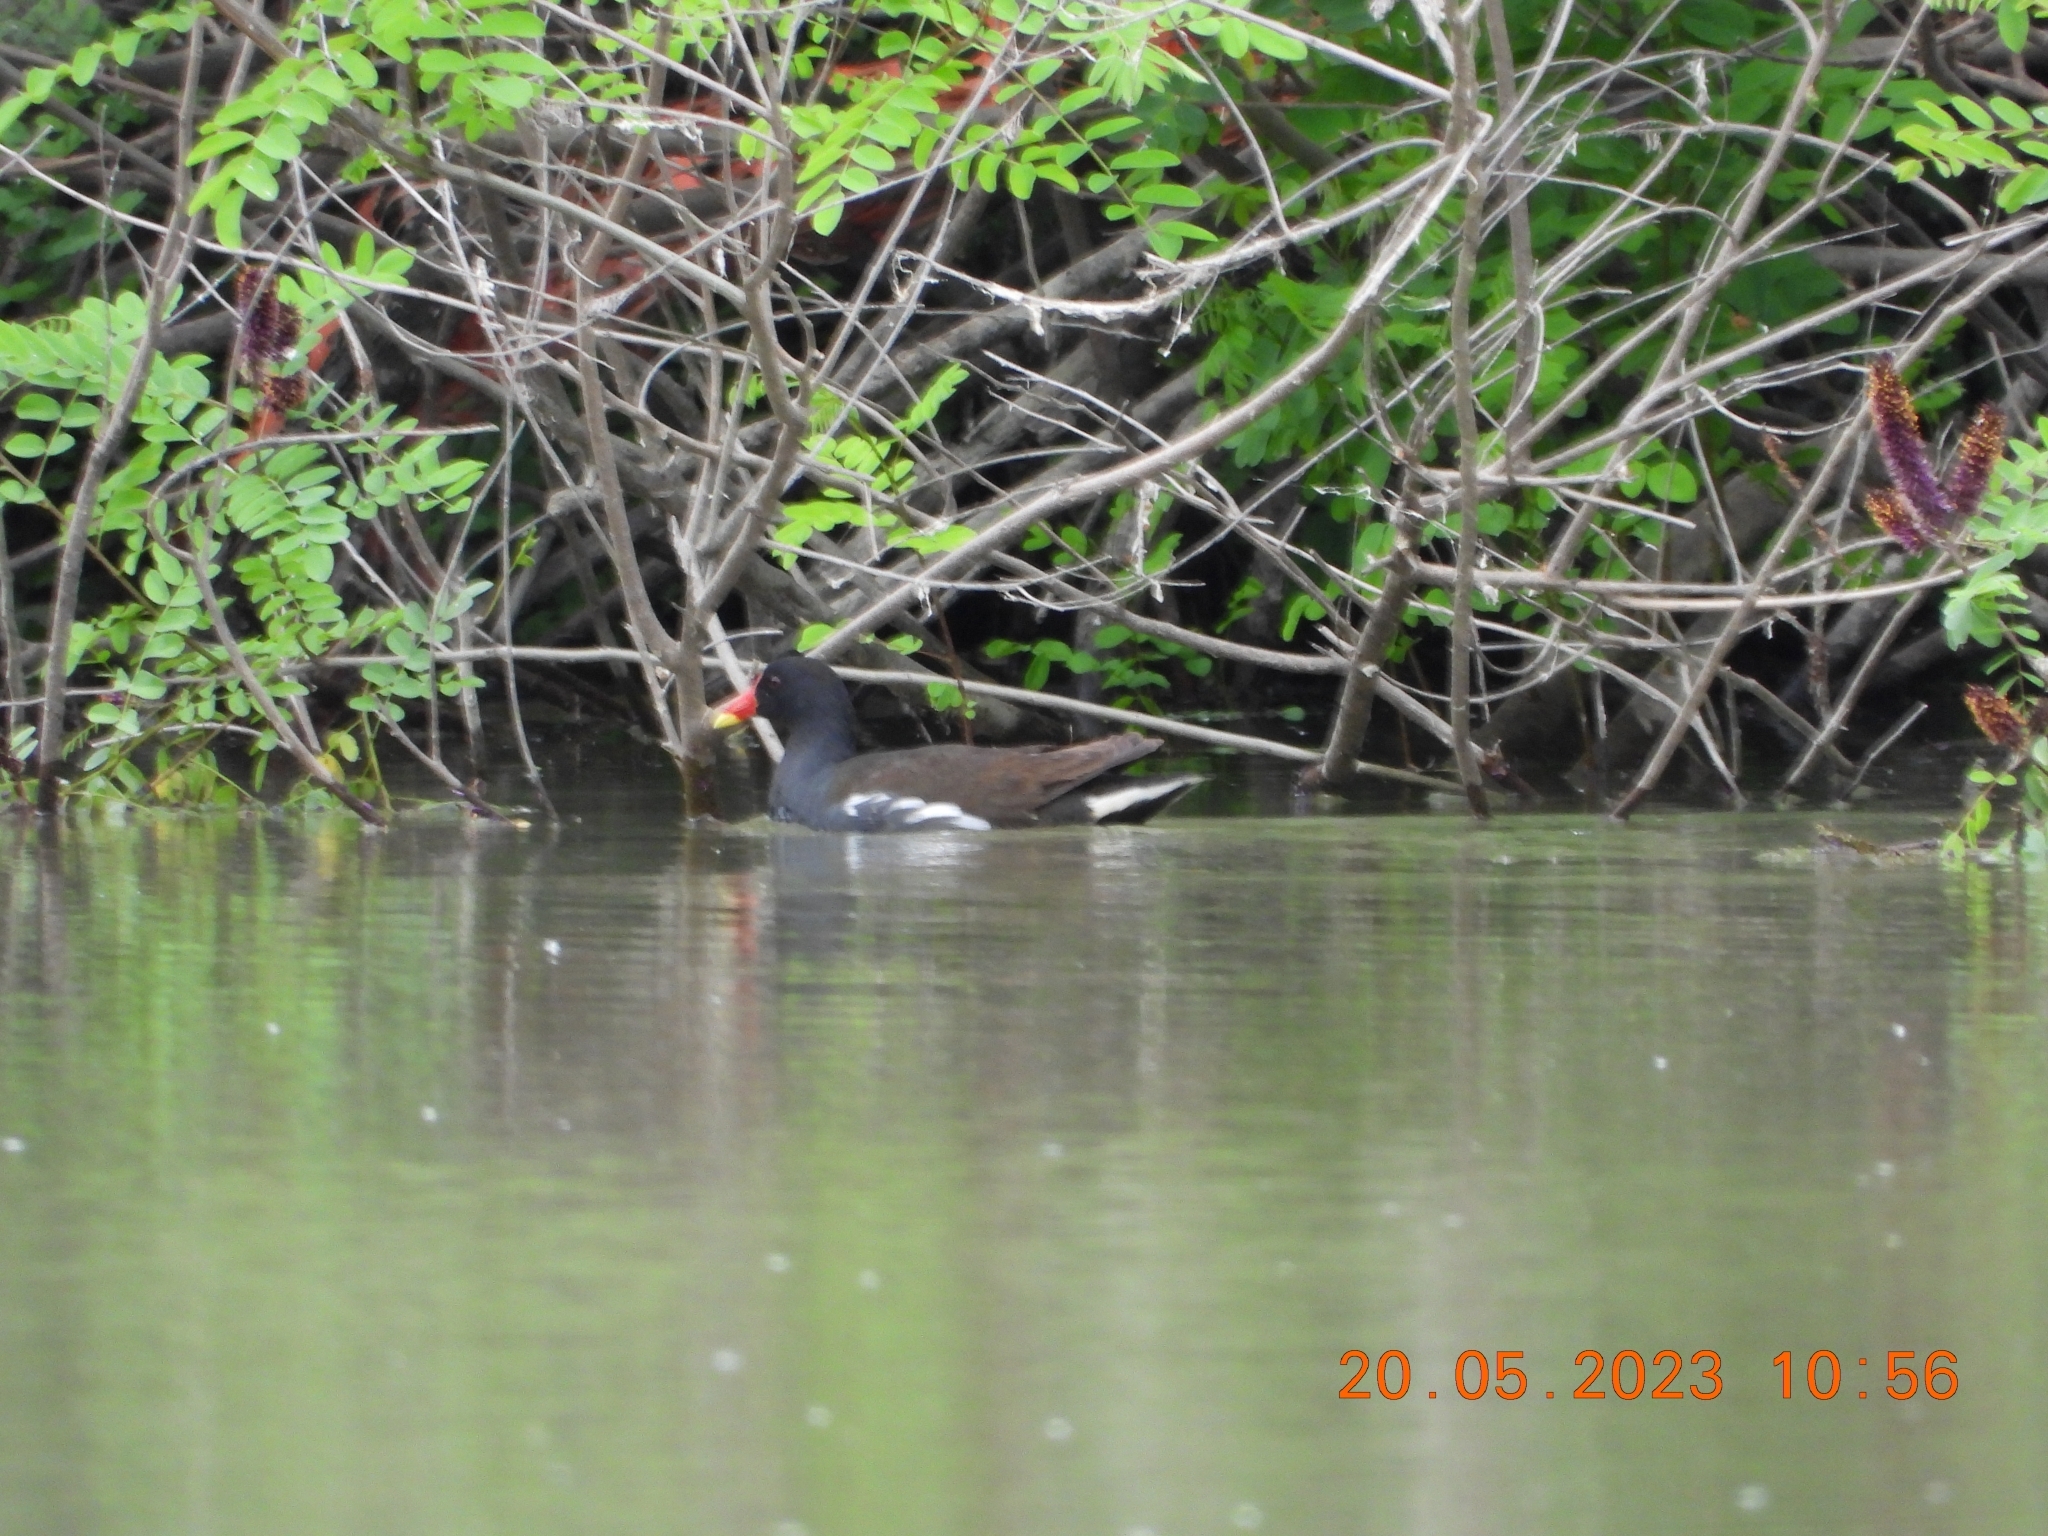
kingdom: Animalia
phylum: Chordata
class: Aves
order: Gruiformes
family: Rallidae
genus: Gallinula
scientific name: Gallinula chloropus
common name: Common moorhen
